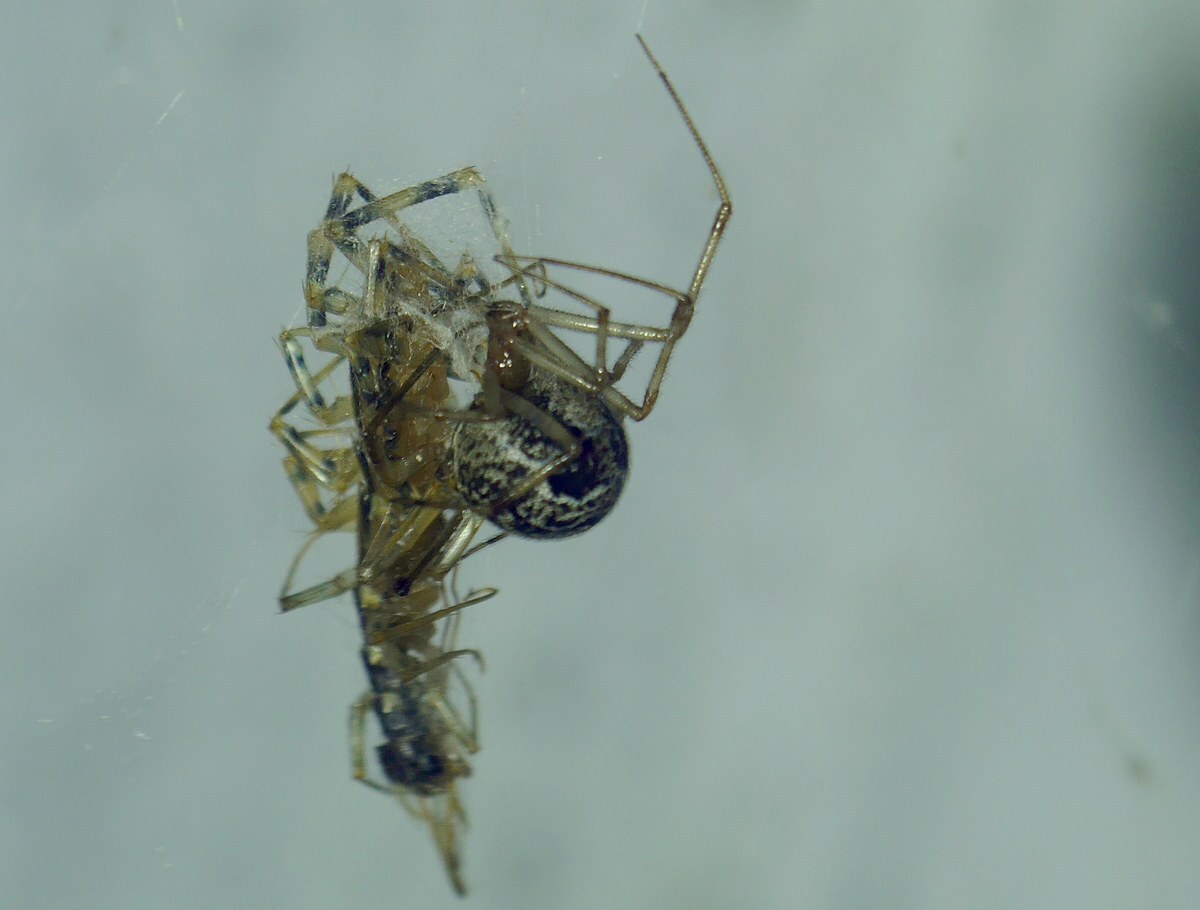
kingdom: Animalia
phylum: Arthropoda
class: Chilopoda
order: Scutigeromorpha
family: Scutigeridae
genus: Scutigera
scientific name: Scutigera coleoptrata
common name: House centipede
